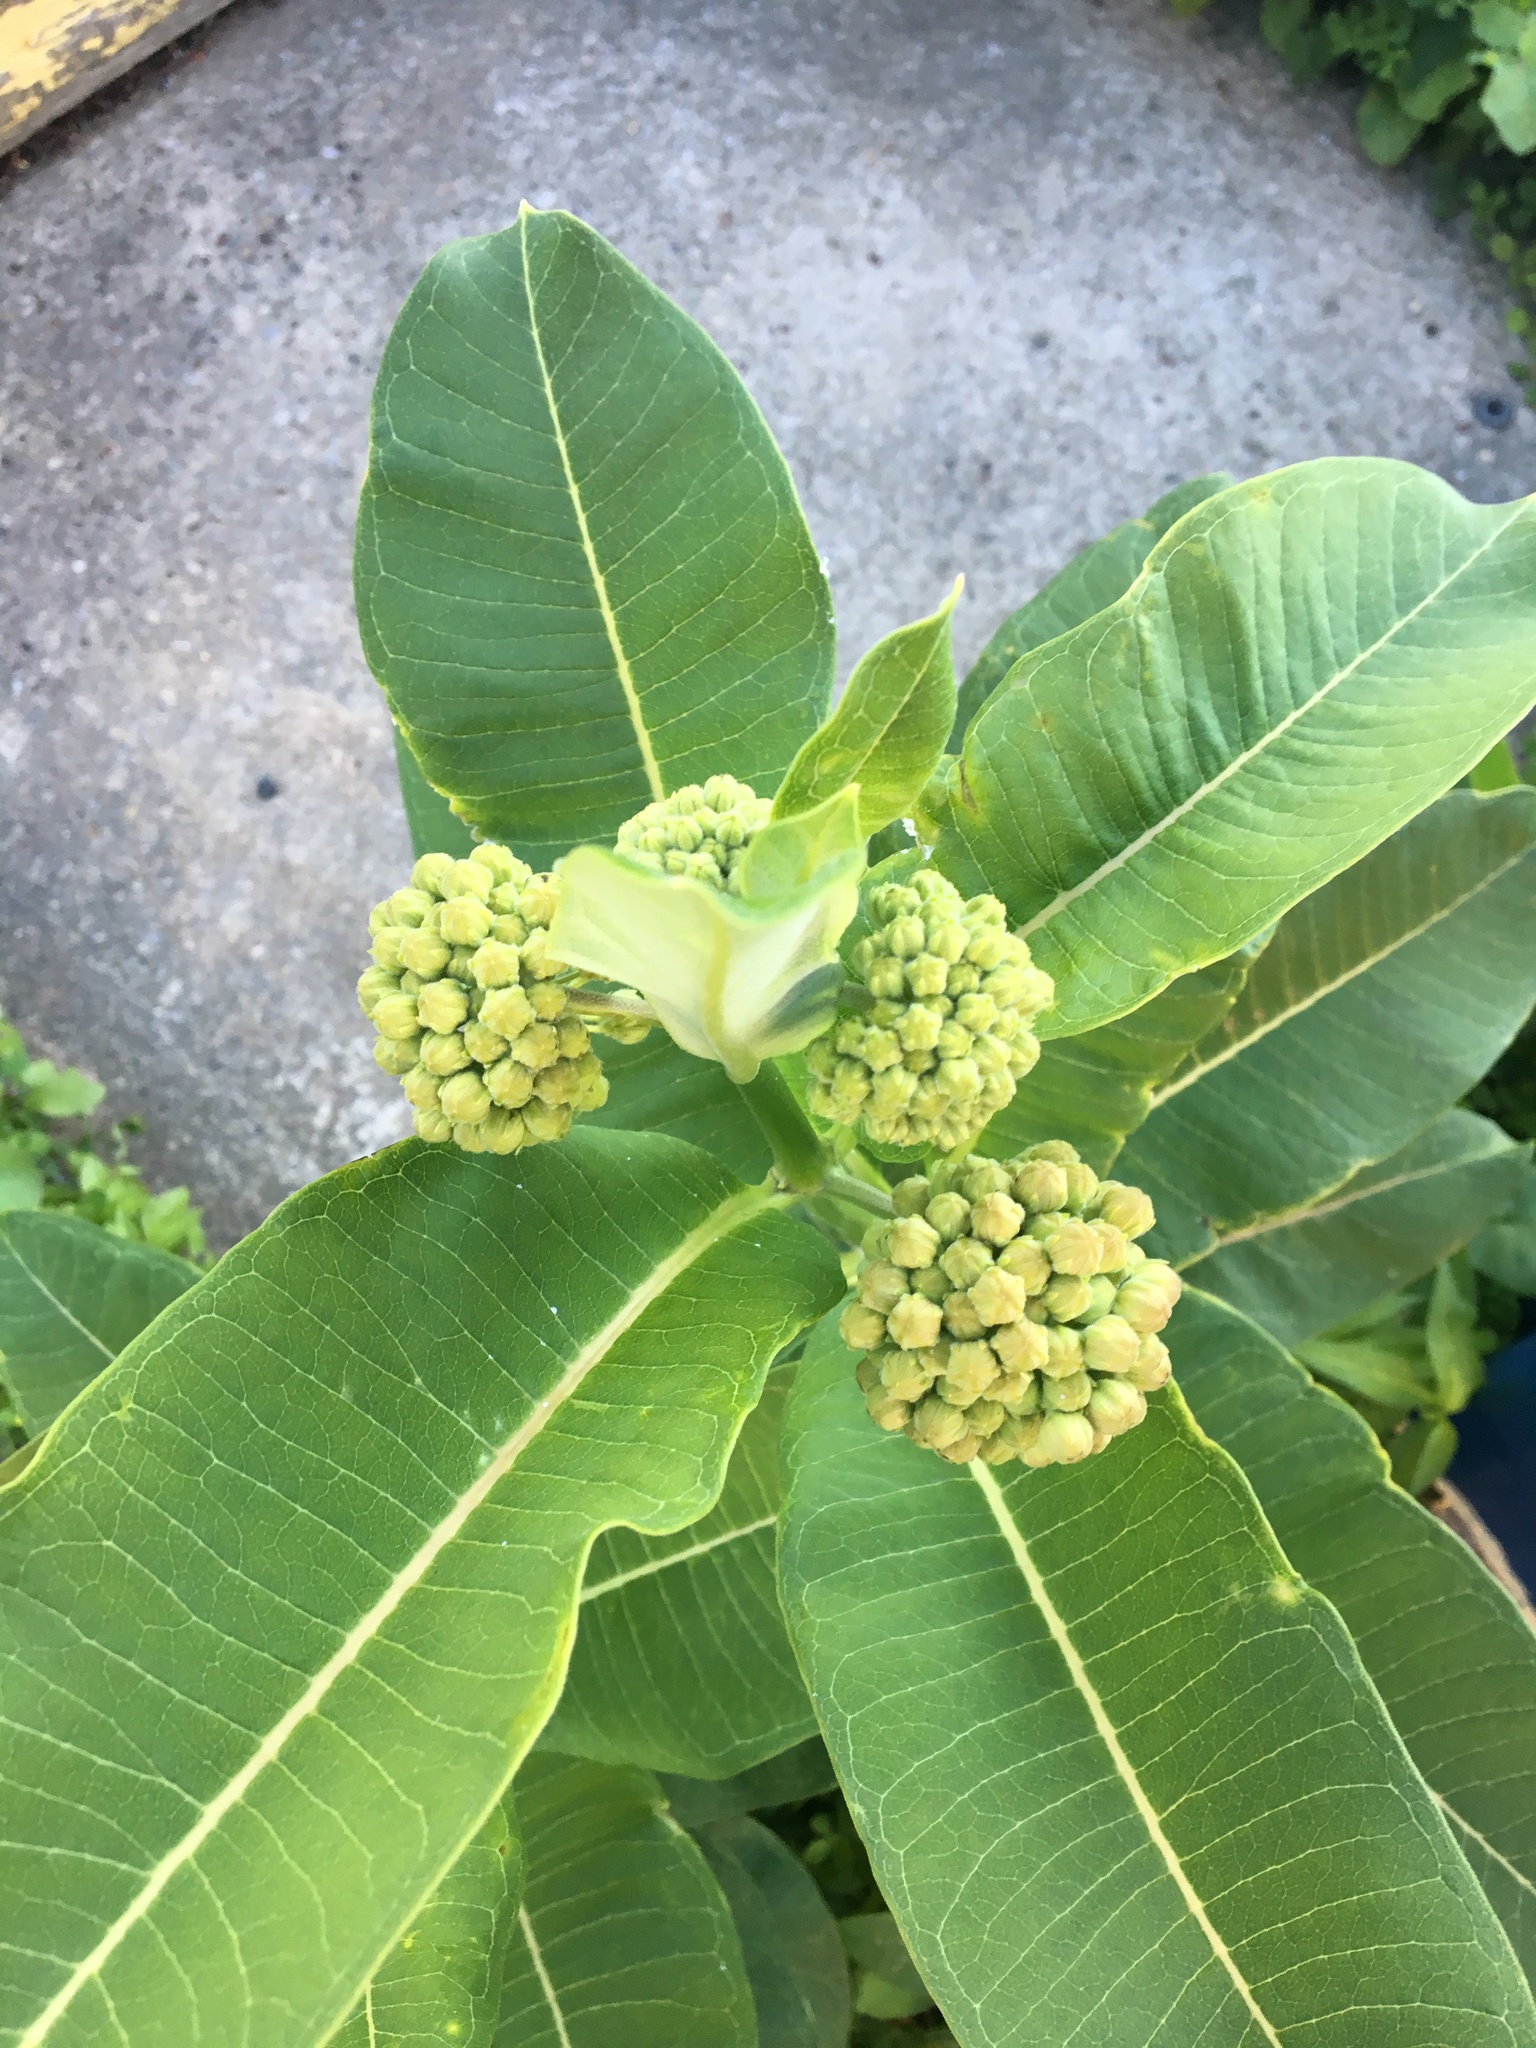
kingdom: Plantae
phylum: Tracheophyta
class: Magnoliopsida
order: Gentianales
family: Apocynaceae
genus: Asclepias
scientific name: Asclepias syriaca
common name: Common milkweed
